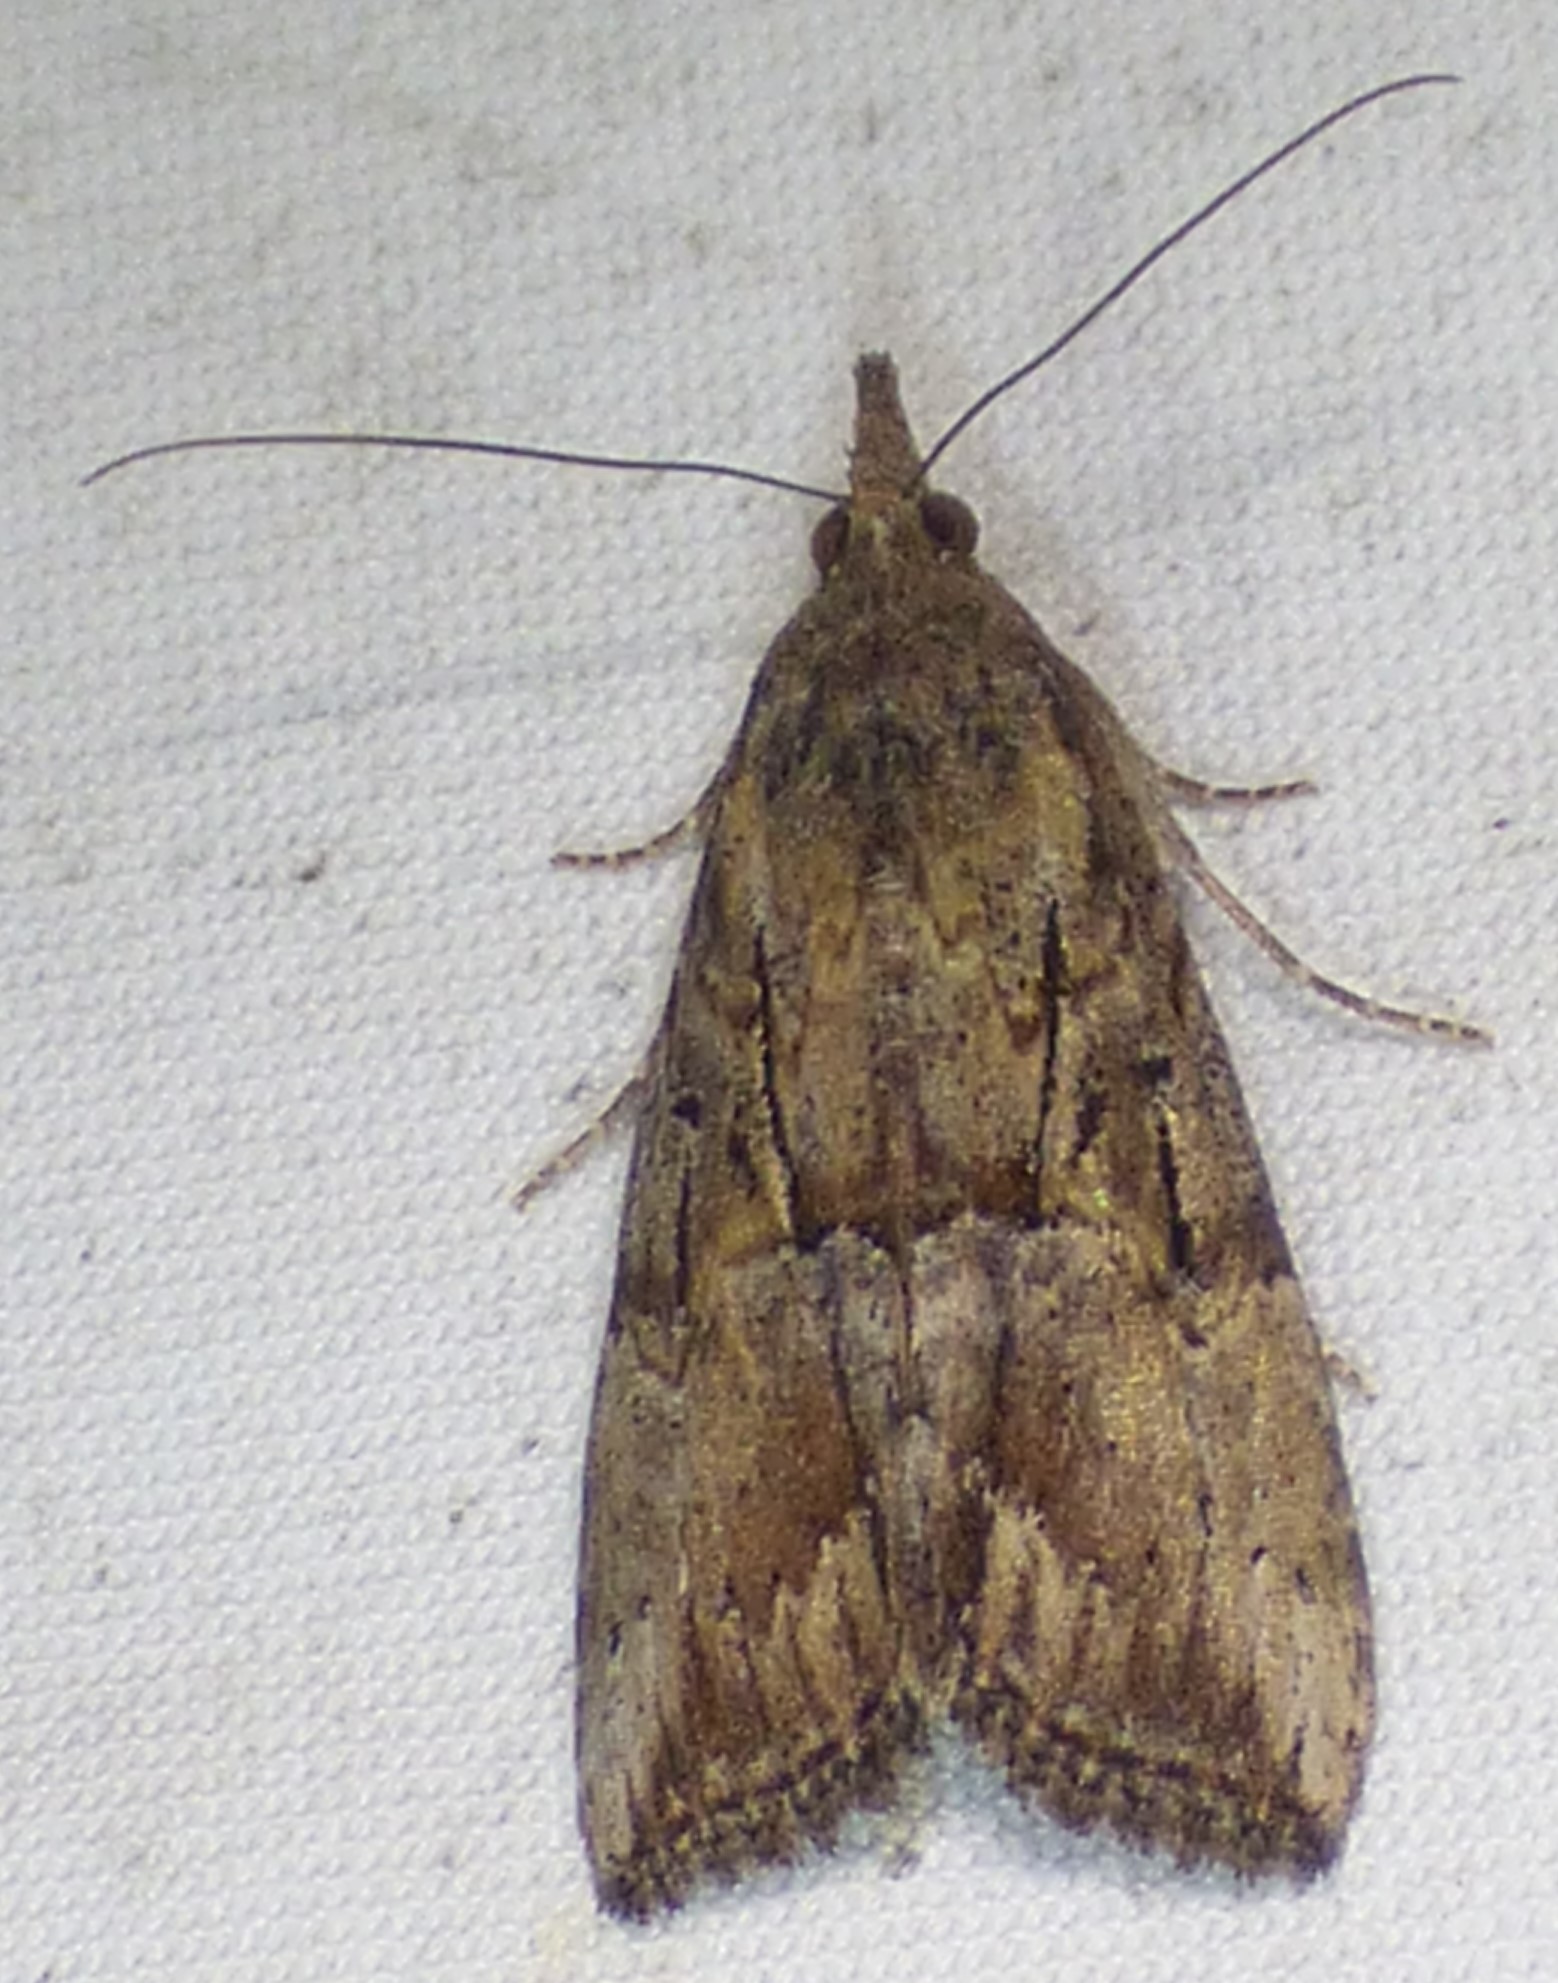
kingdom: Animalia
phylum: Arthropoda
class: Insecta
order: Lepidoptera
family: Erebidae
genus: Hypena
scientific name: Hypena scabra
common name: Green cloverworm
